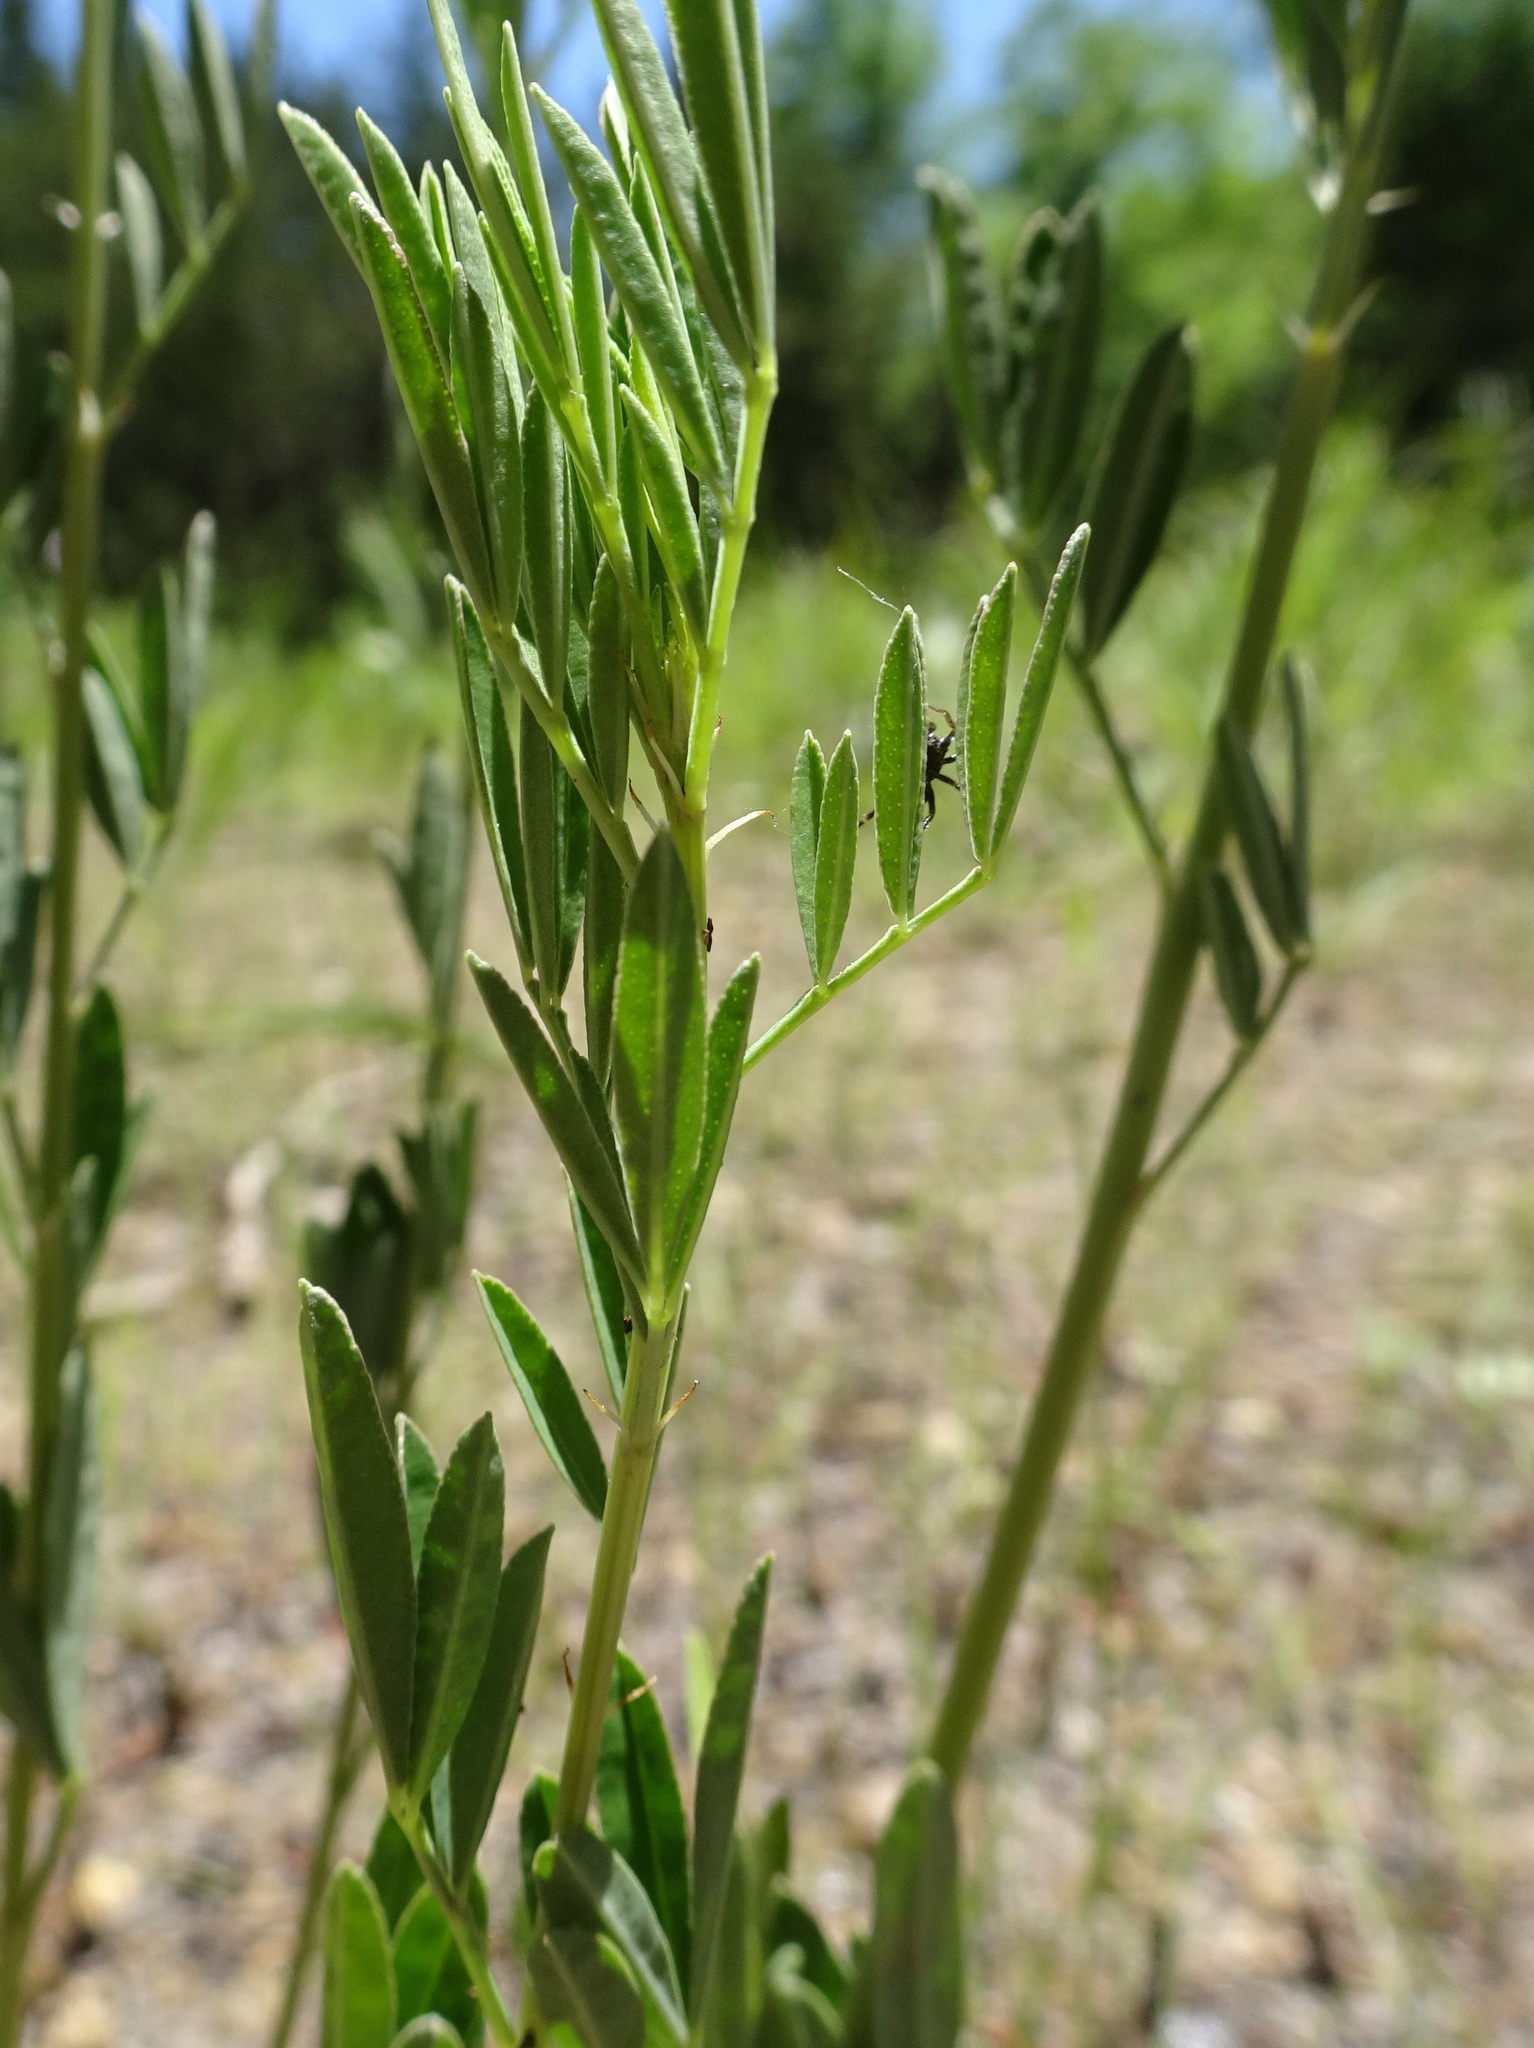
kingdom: Plantae
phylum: Tracheophyta
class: Magnoliopsida
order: Fabales
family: Fabaceae
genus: Dalea
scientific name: Dalea candida
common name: White prairie-clover
